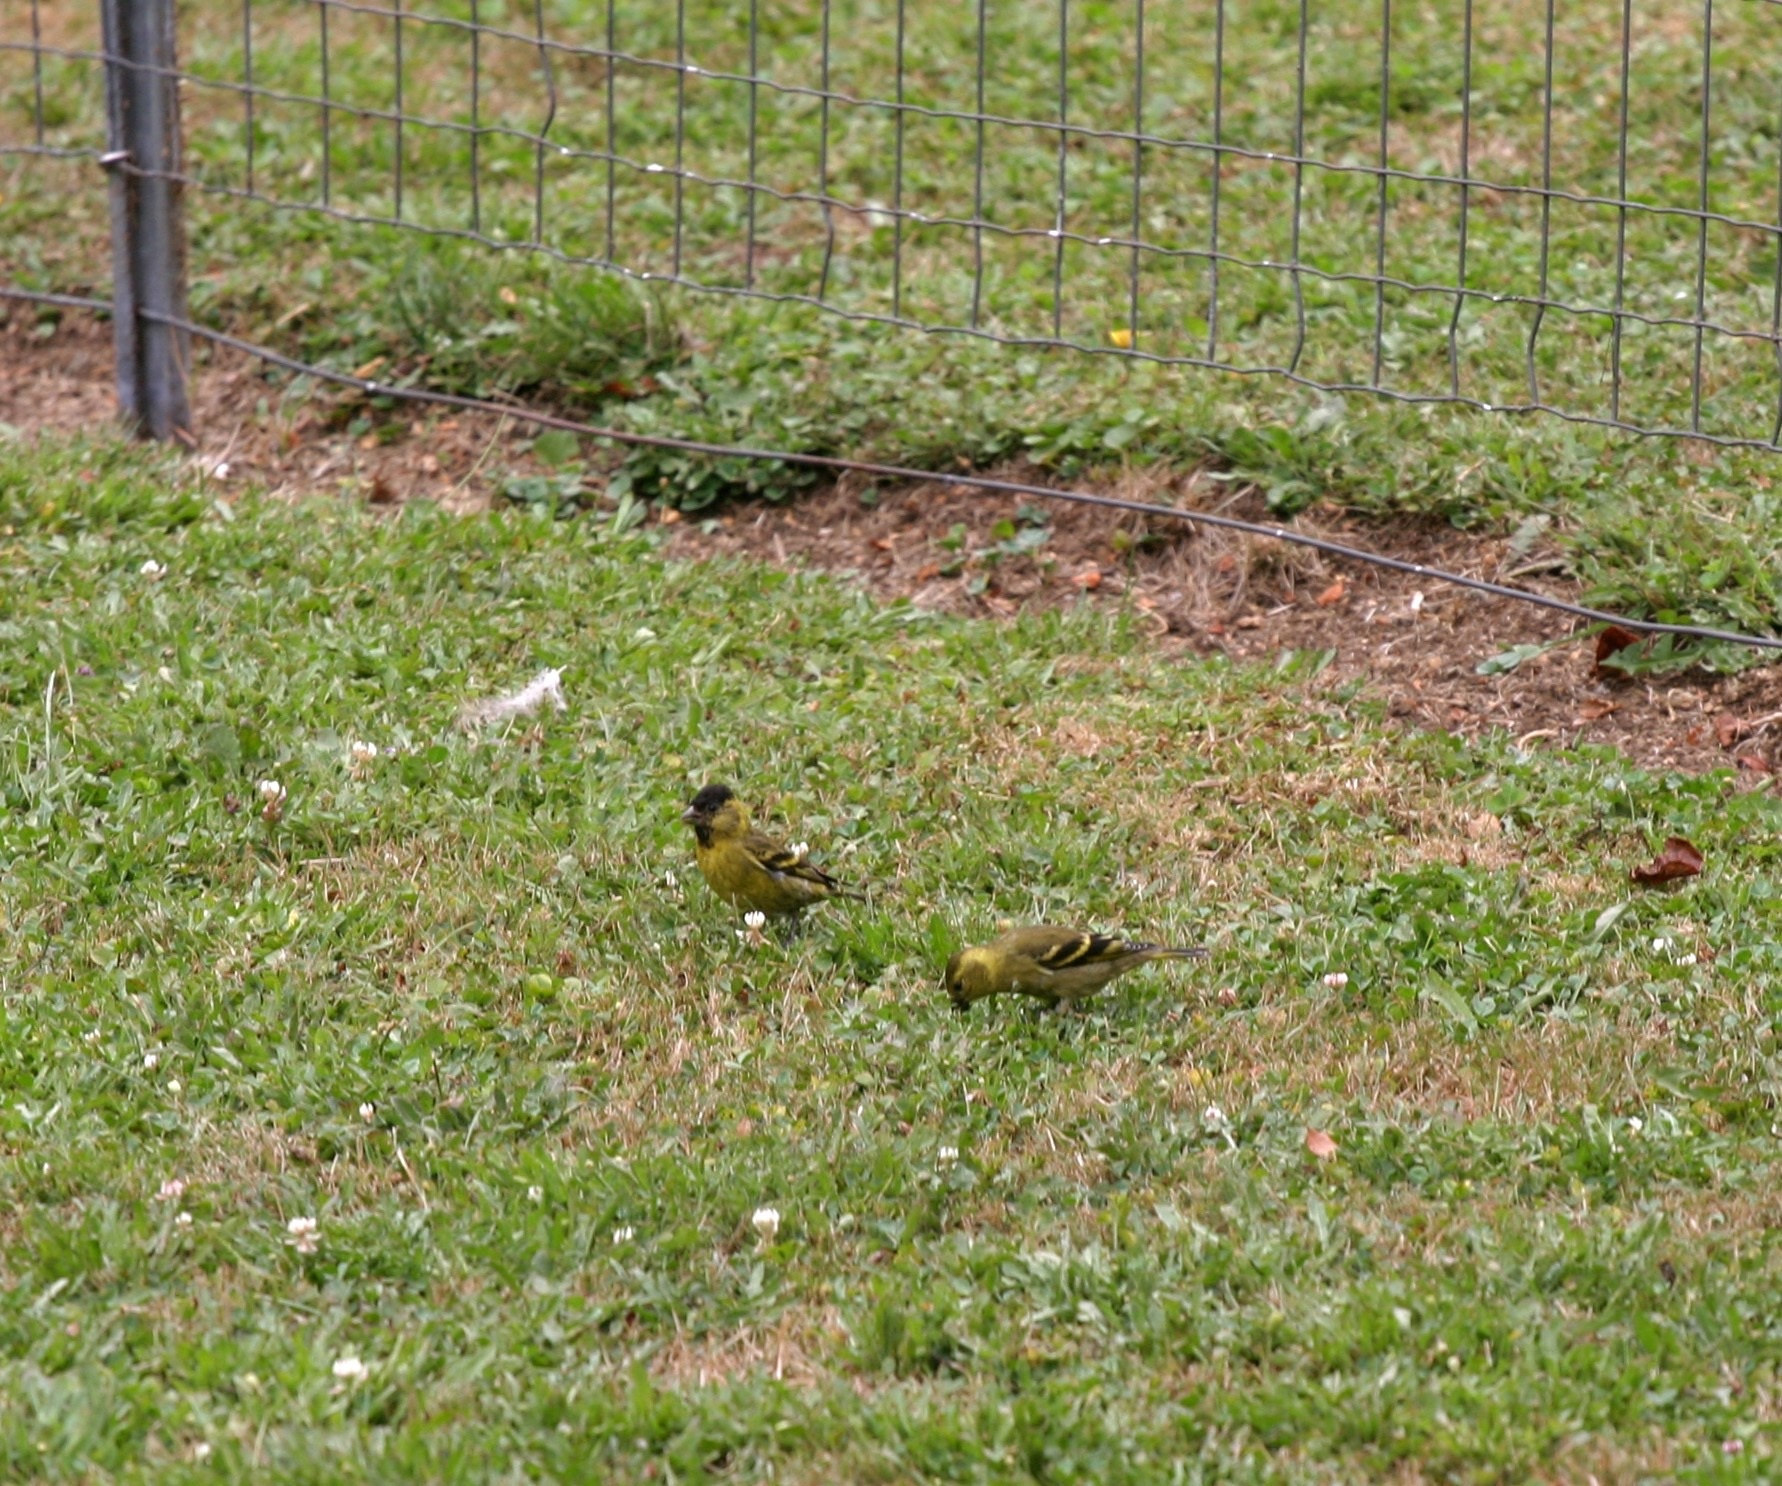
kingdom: Animalia
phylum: Chordata
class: Aves
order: Passeriformes
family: Fringillidae
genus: Spinus
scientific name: Spinus barbatus
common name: Black-chinned siskin
